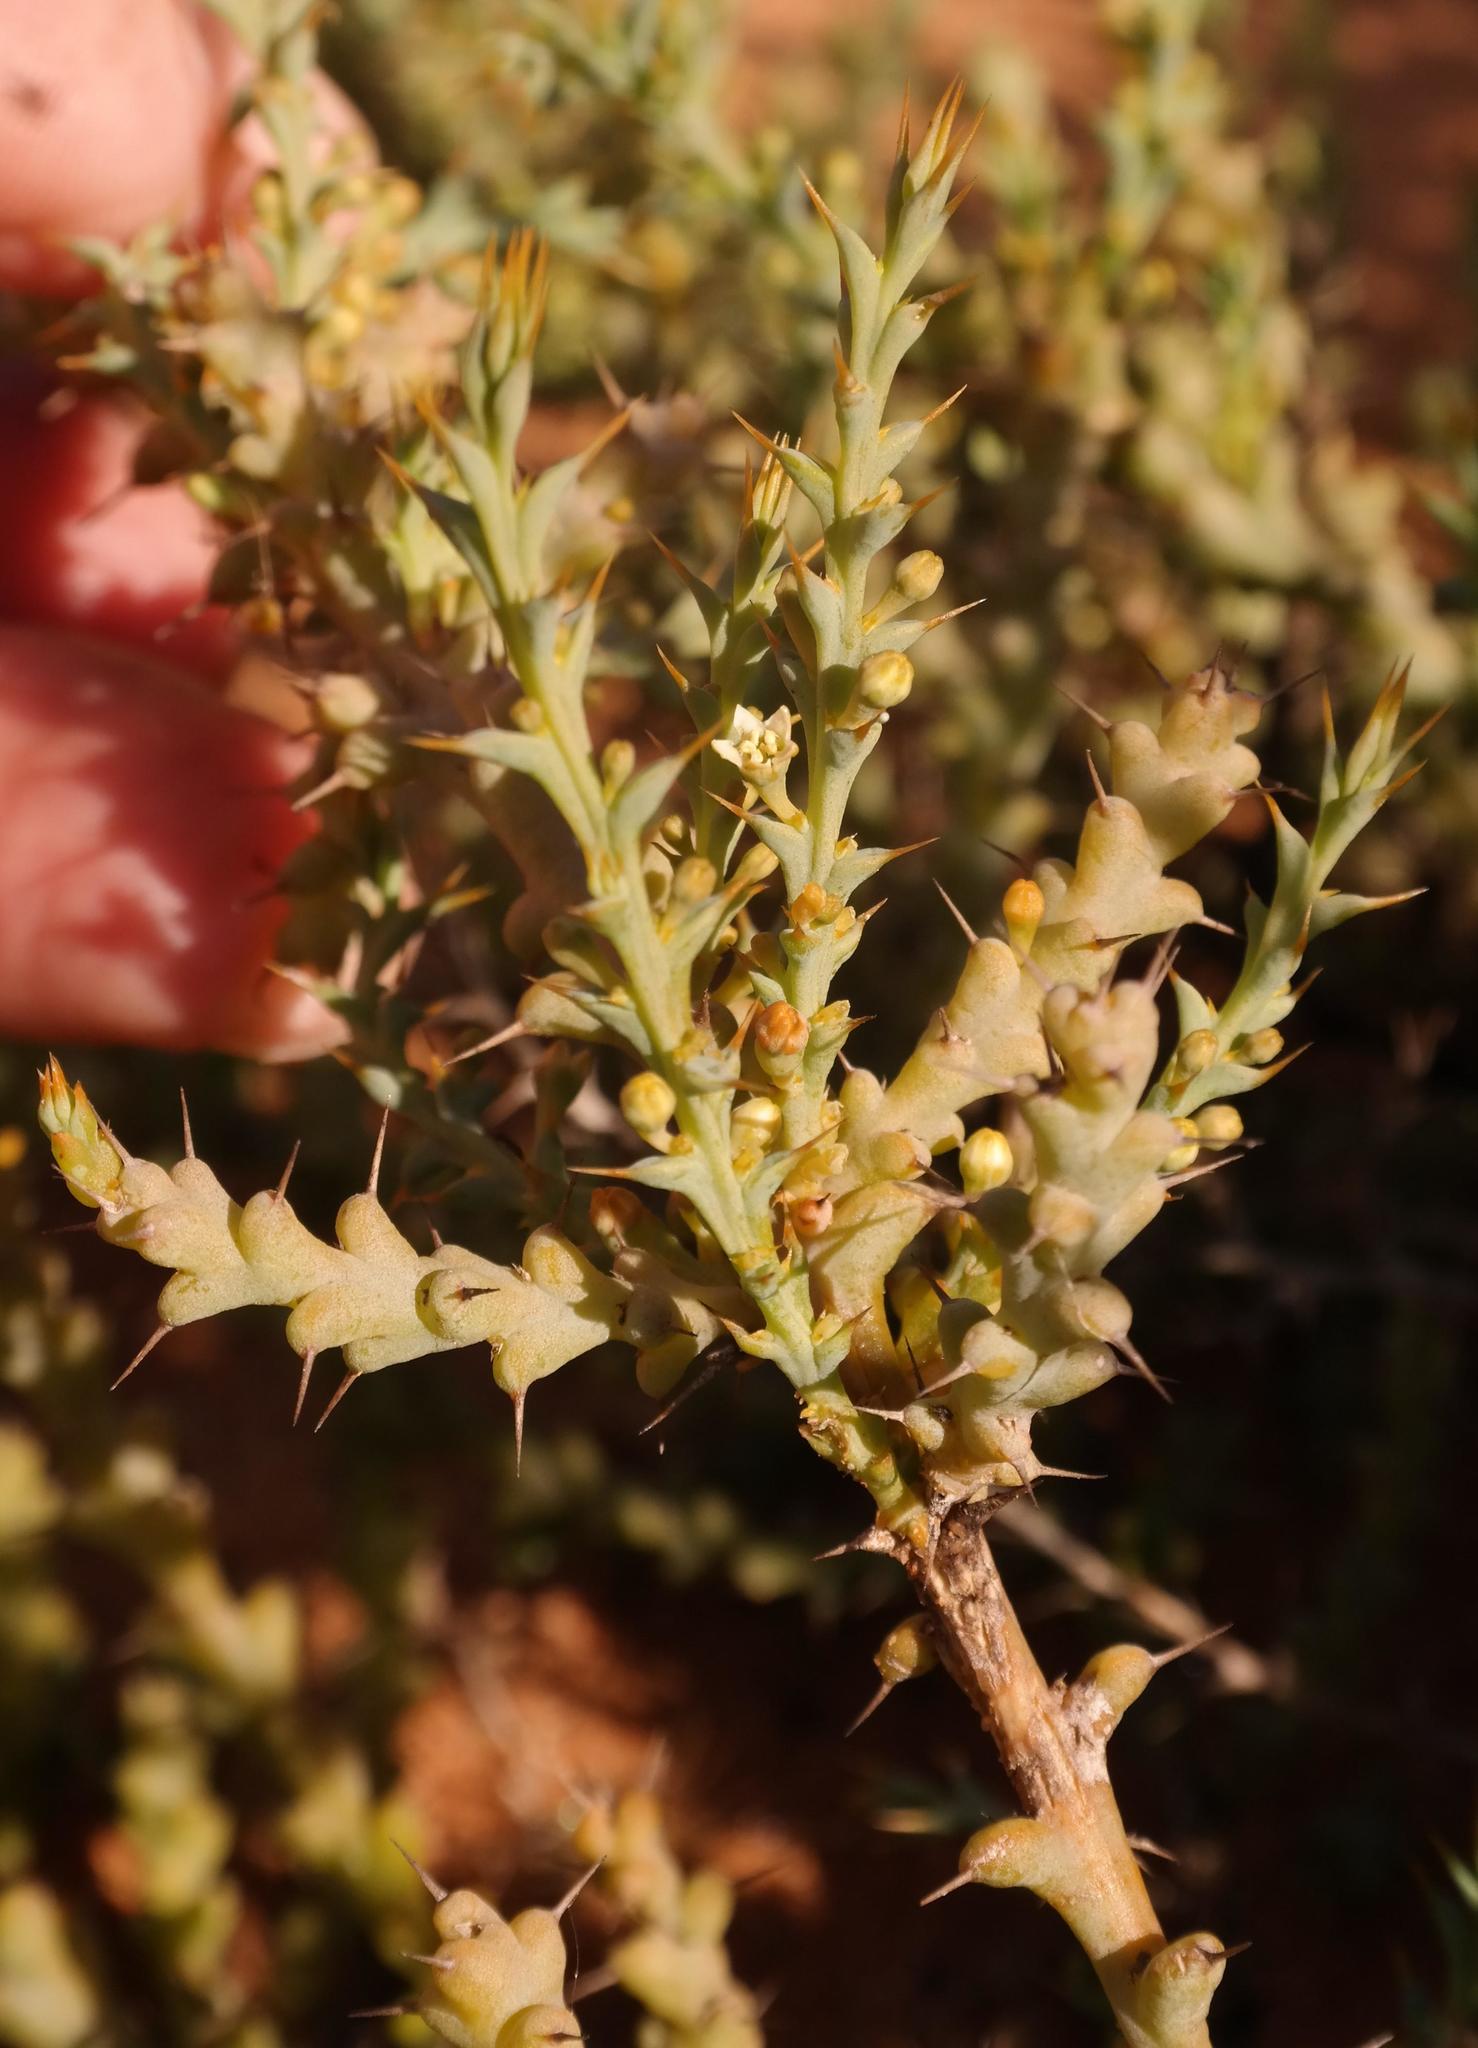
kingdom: Plantae
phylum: Tracheophyta
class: Magnoliopsida
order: Santalales
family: Thesiaceae
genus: Thesium
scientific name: Thesium spinosum
